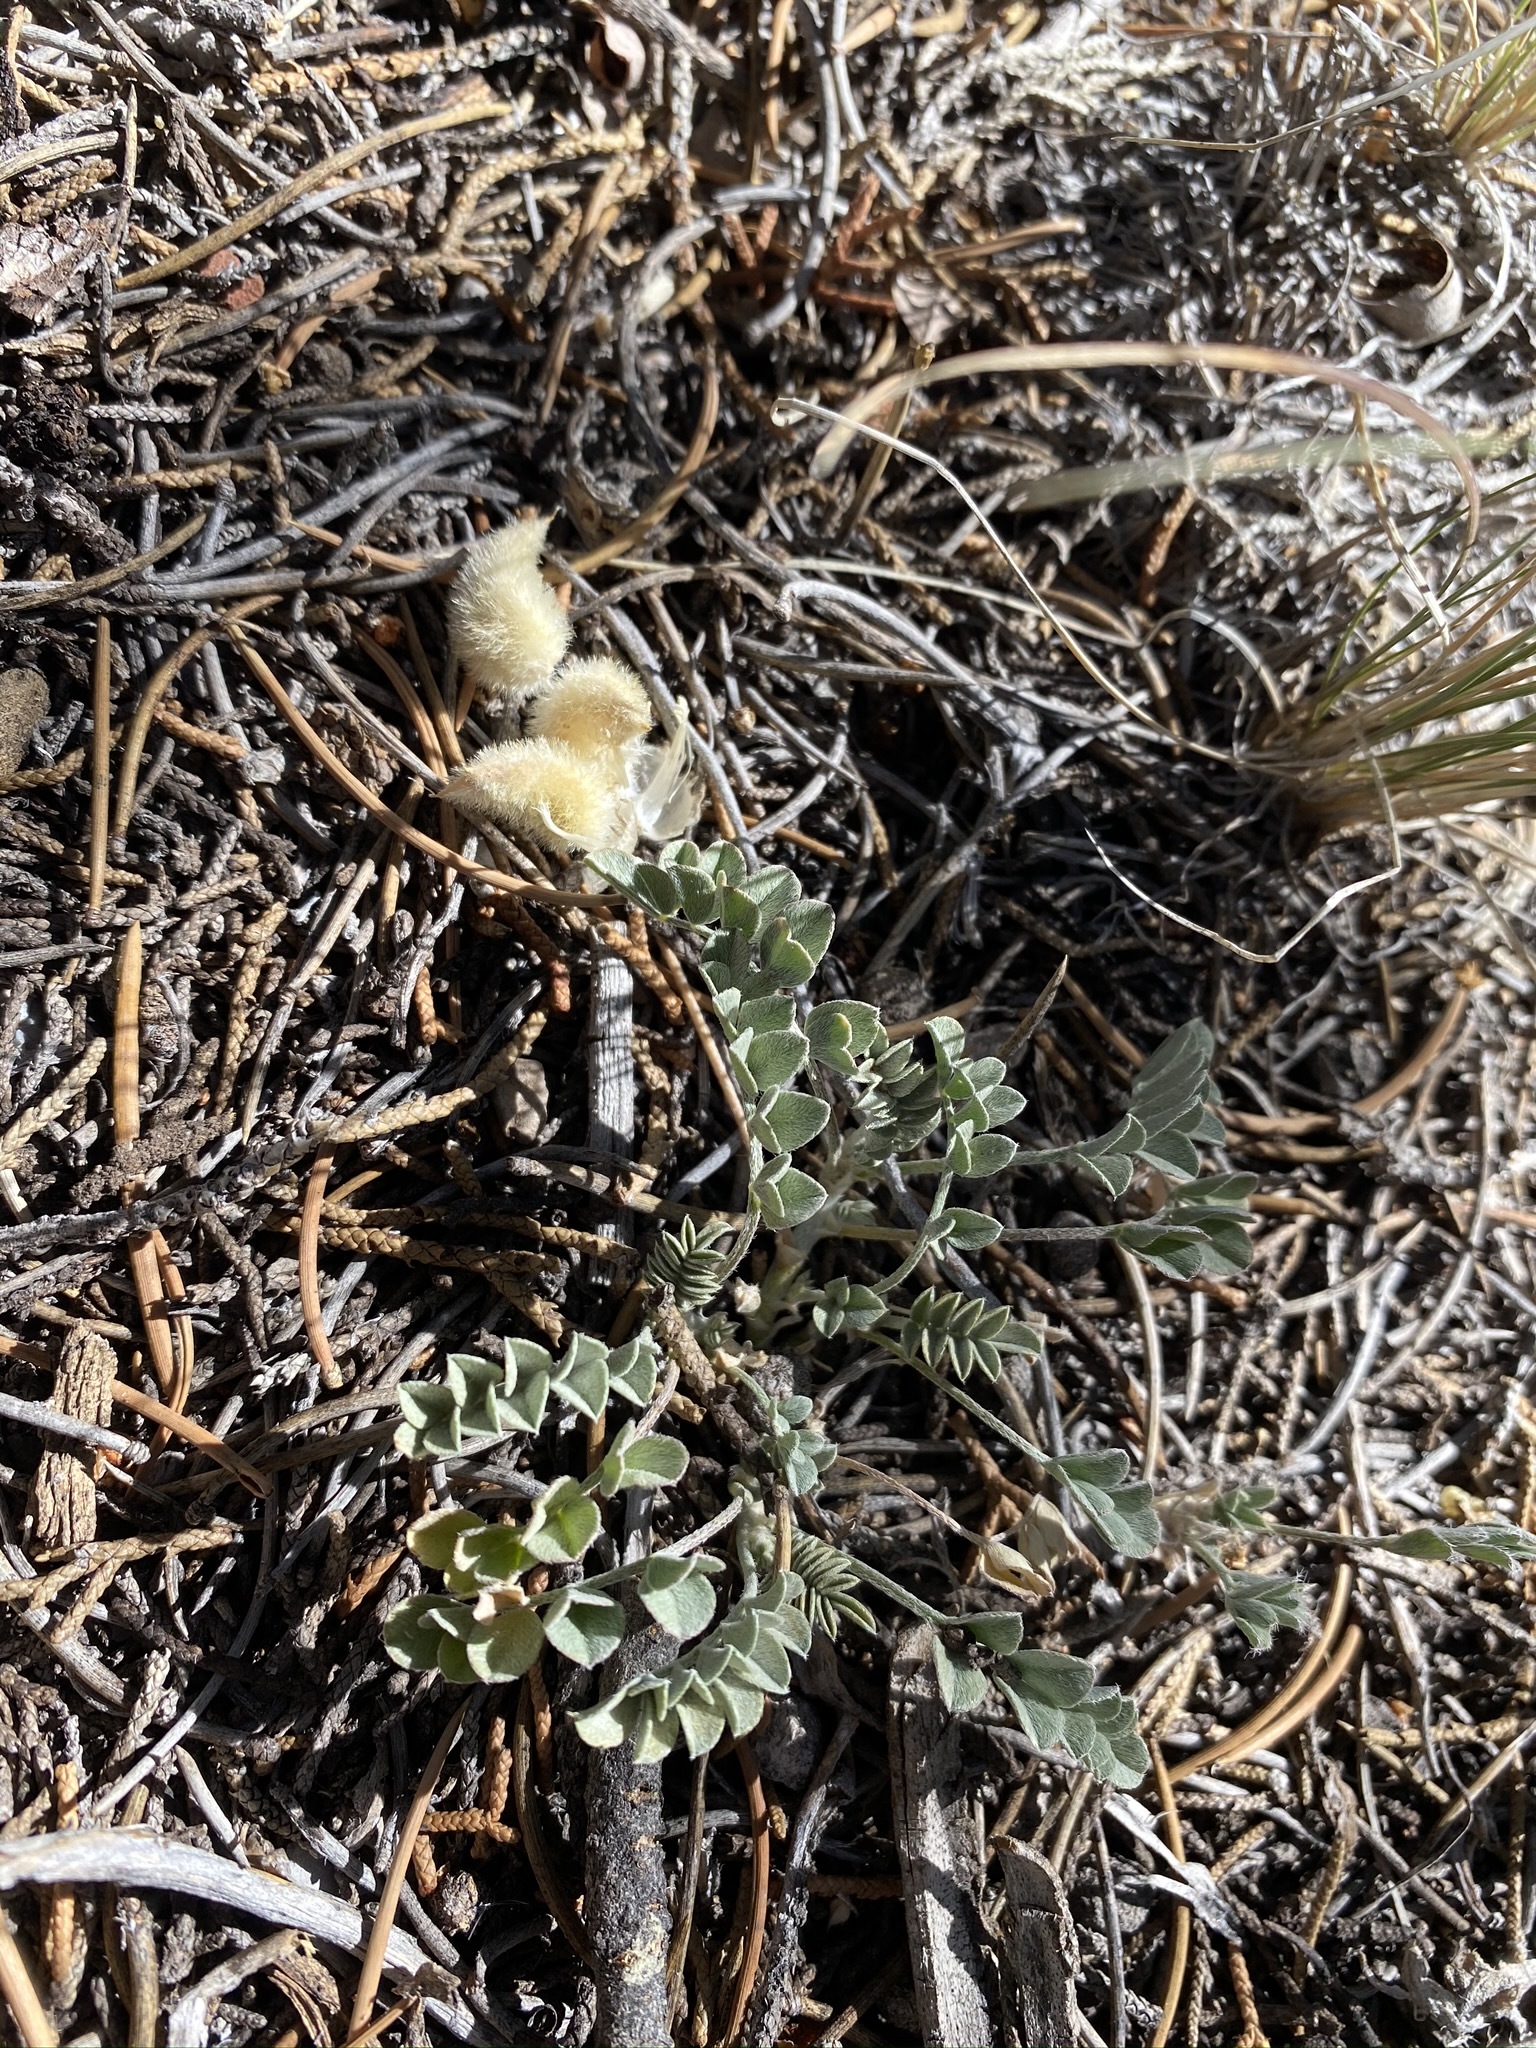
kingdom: Plantae
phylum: Tracheophyta
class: Magnoliopsida
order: Fabales
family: Fabaceae
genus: Astragalus
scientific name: Astragalus newberryi
